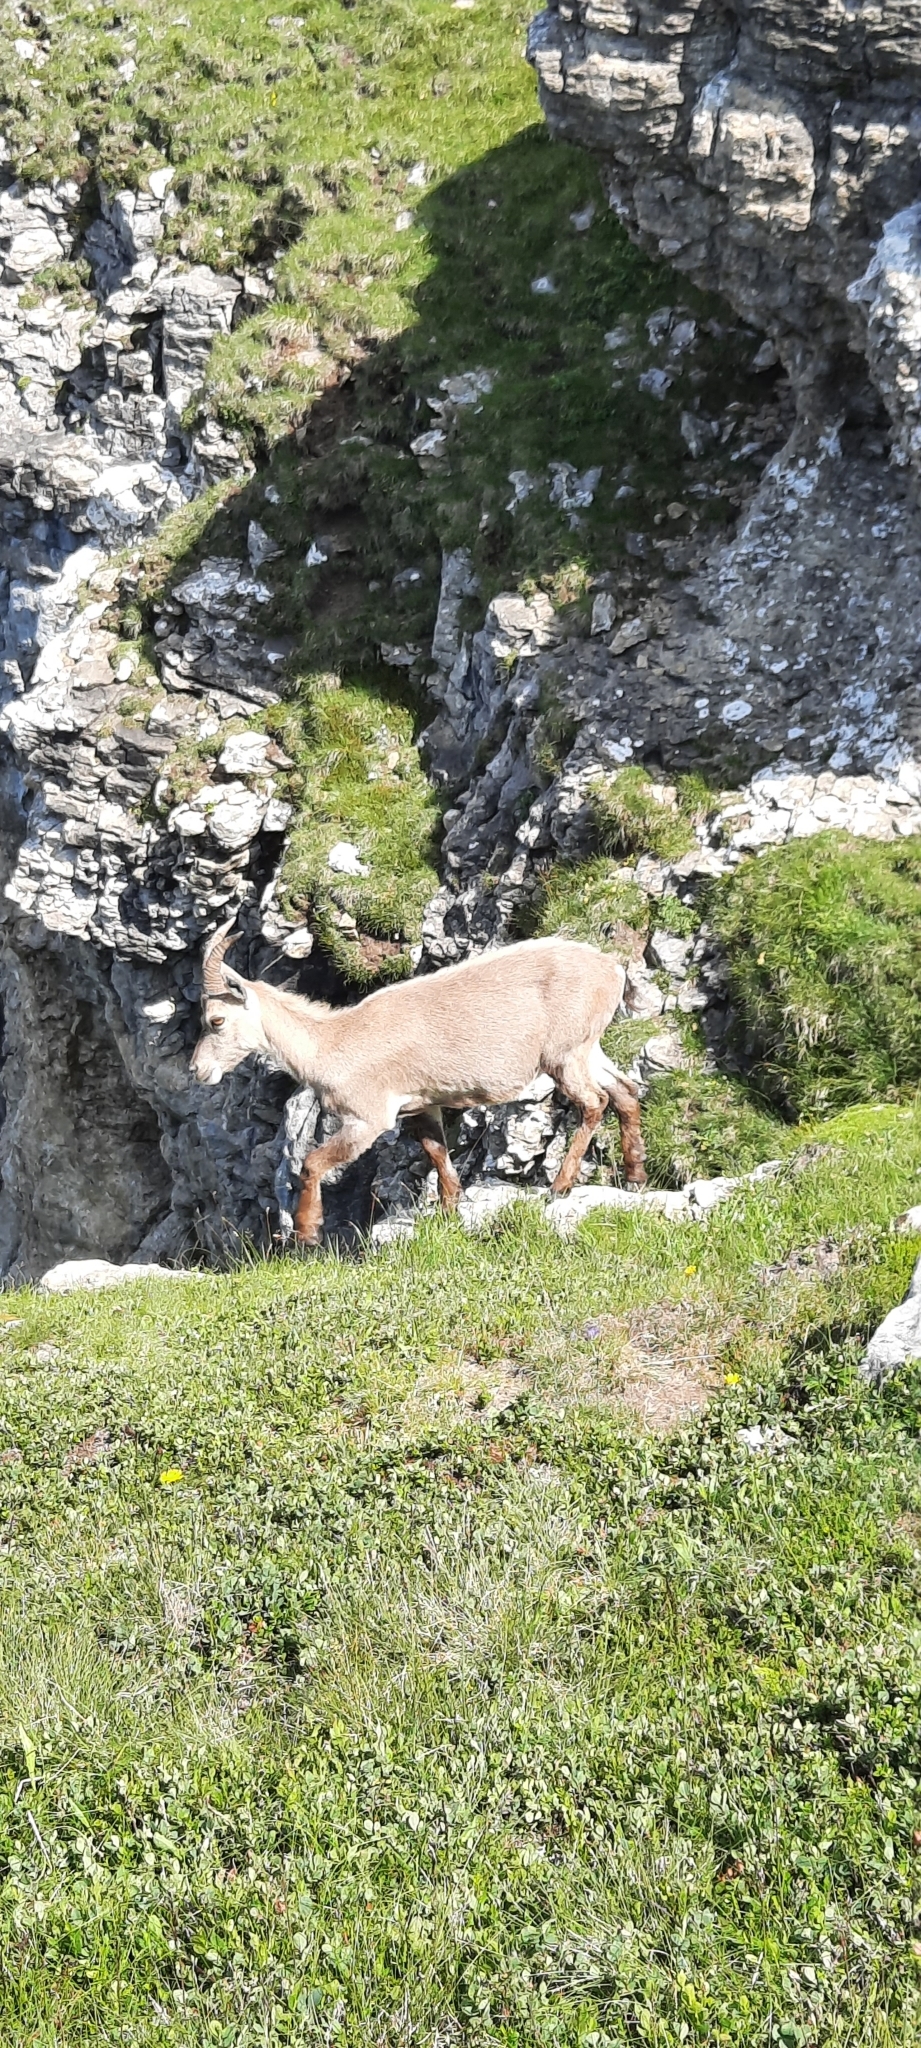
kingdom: Animalia
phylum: Chordata
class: Mammalia
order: Artiodactyla
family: Bovidae
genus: Capra
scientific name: Capra ibex
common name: Alpine ibex
